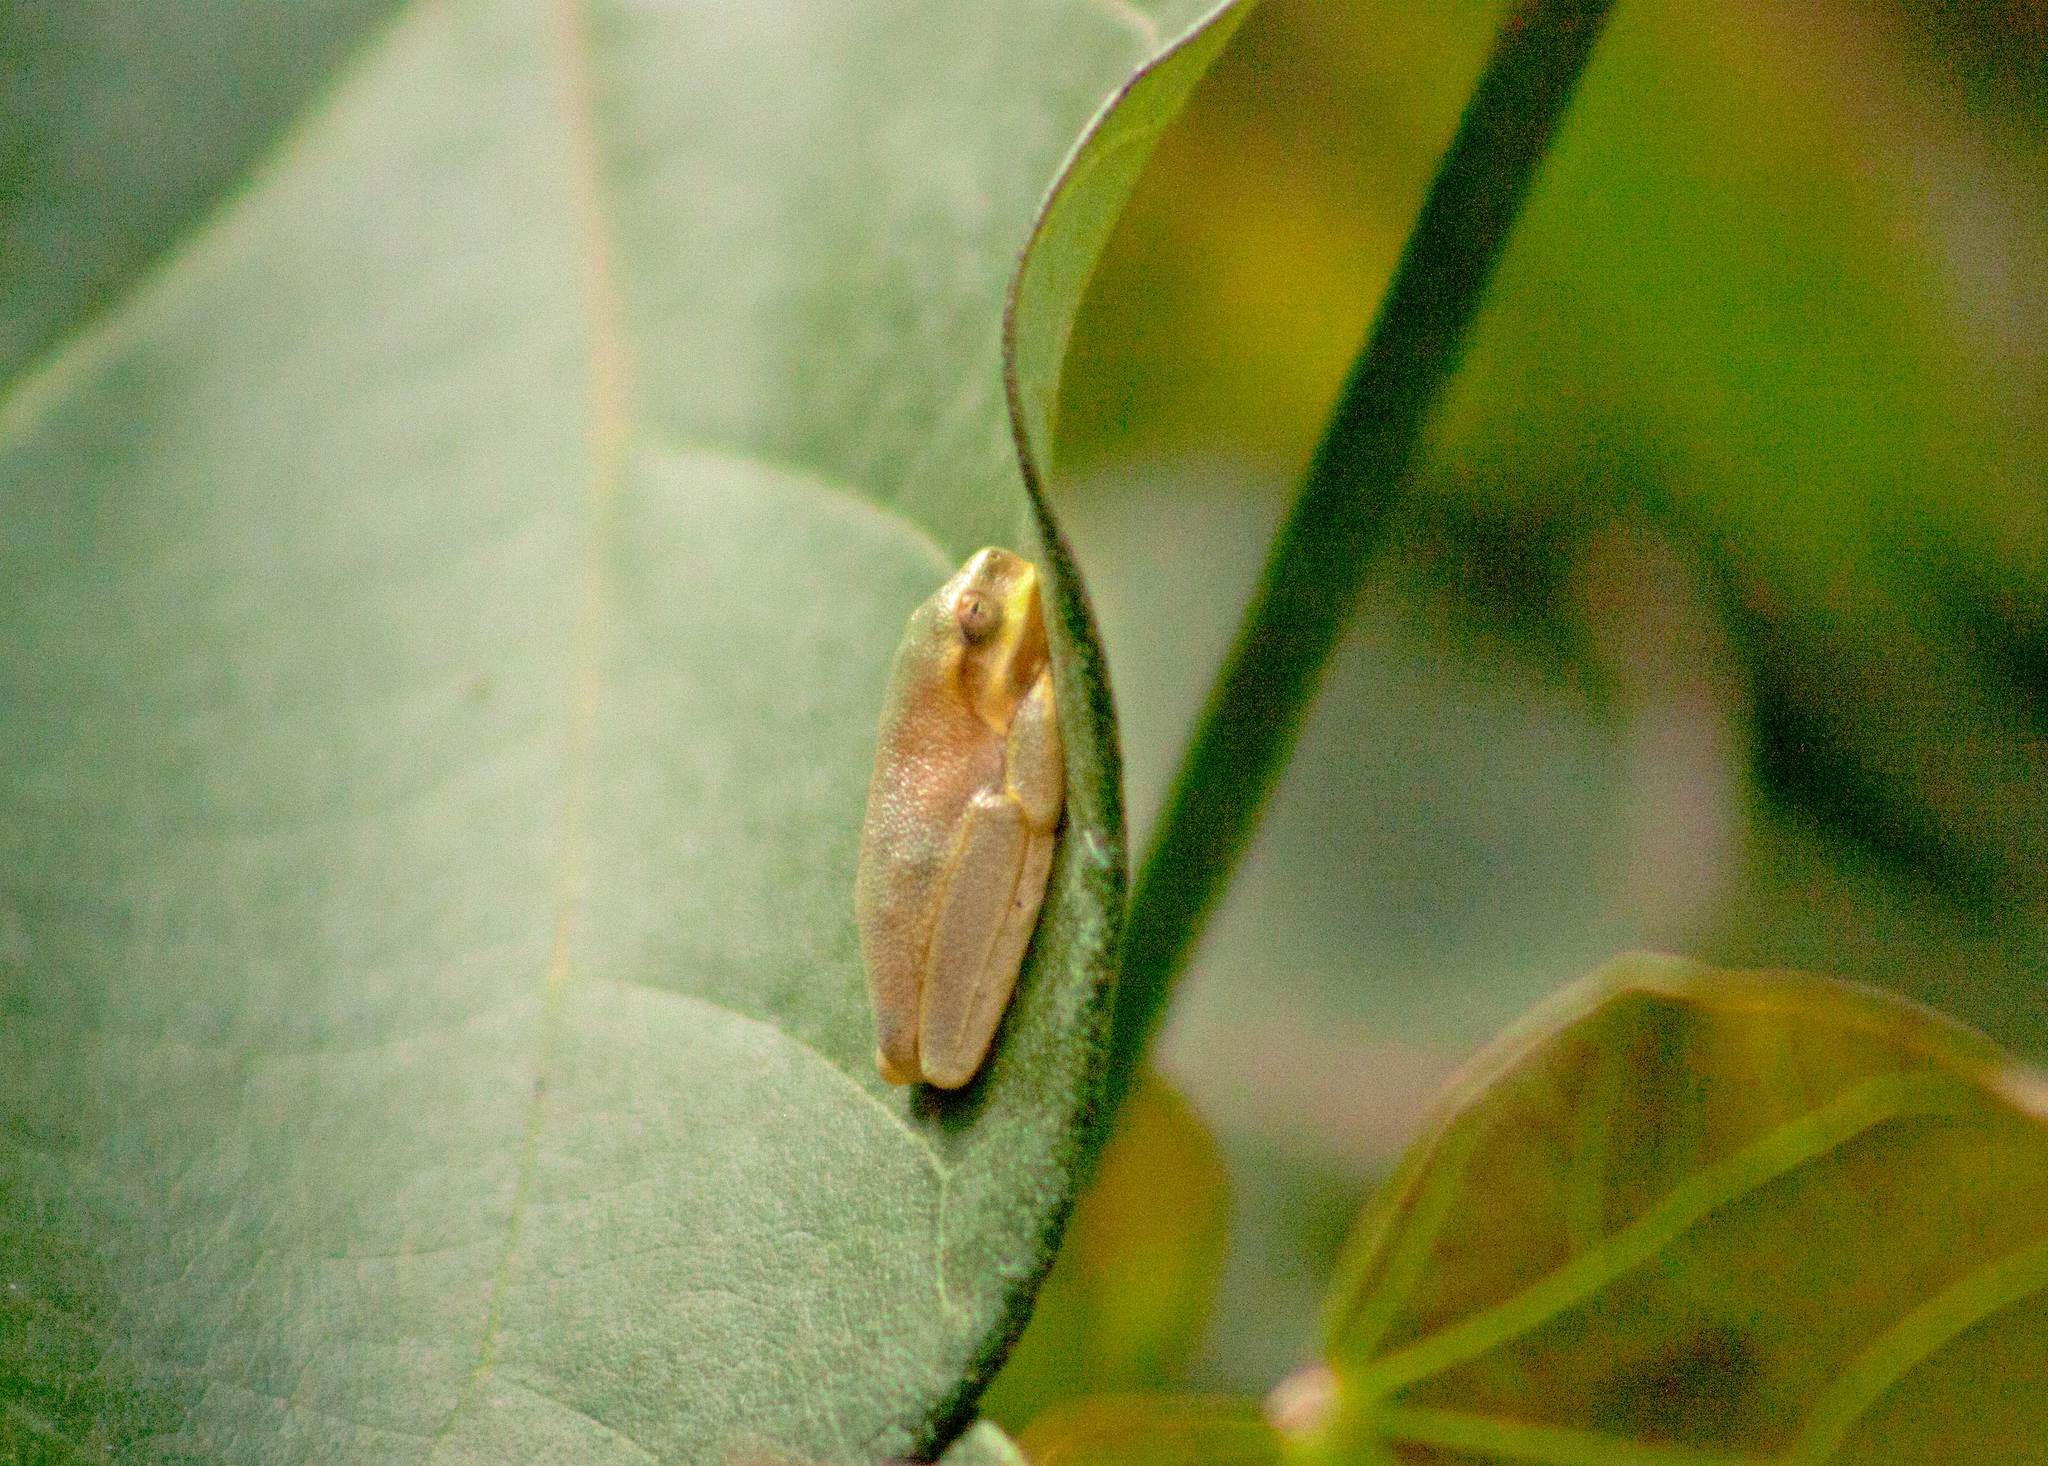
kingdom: Animalia
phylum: Chordata
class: Amphibia
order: Anura
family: Pelodryadidae
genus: Ranoidea
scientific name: Ranoidea gracilenta
